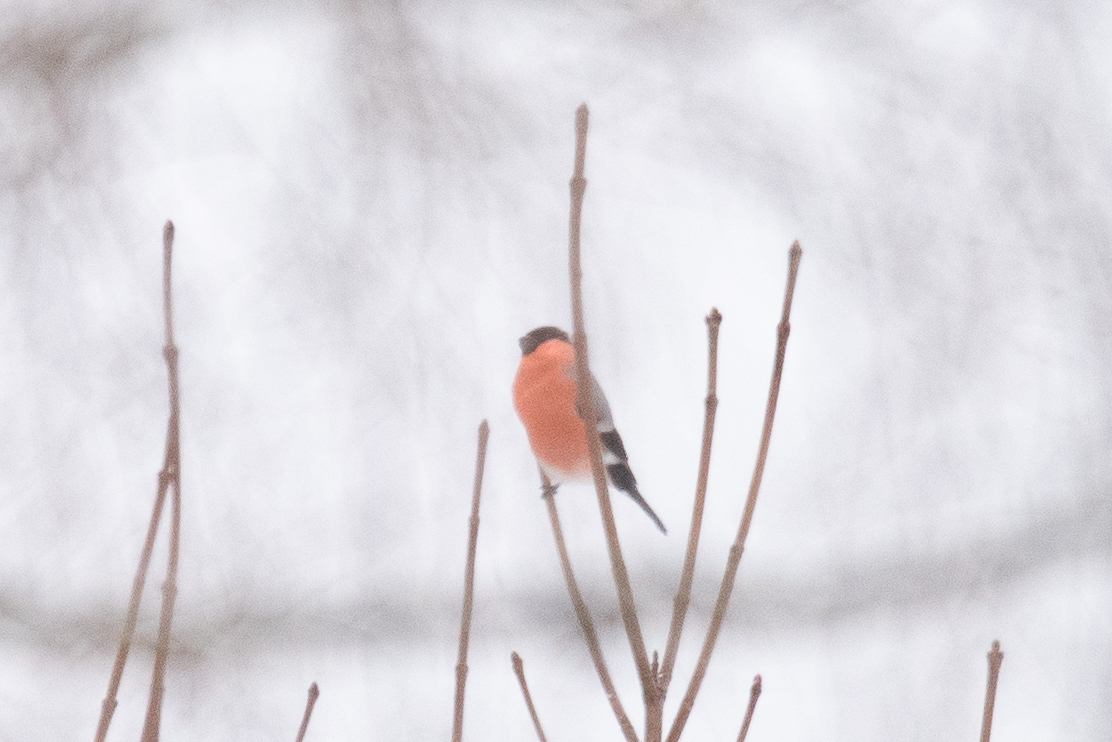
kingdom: Animalia
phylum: Chordata
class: Aves
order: Passeriformes
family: Fringillidae
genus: Pyrrhula
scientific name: Pyrrhula pyrrhula
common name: Eurasian bullfinch
